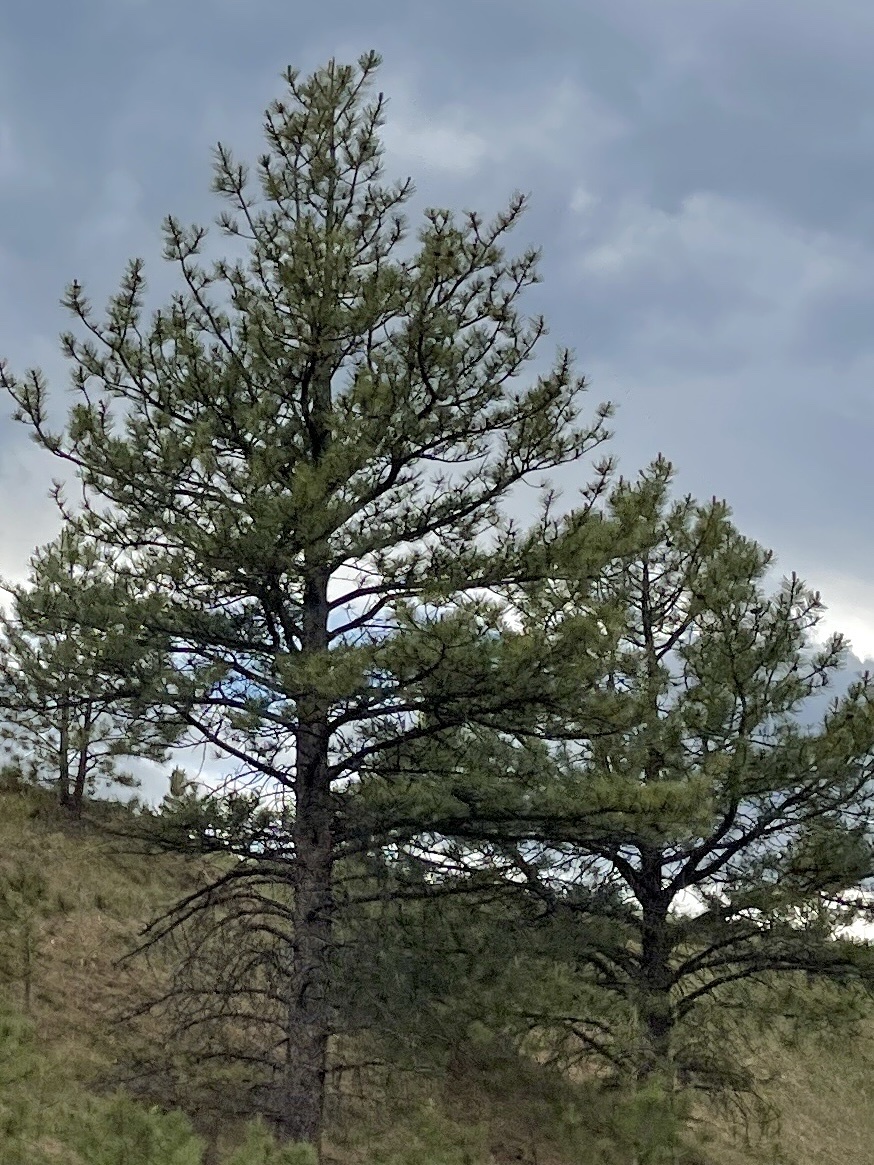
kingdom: Plantae
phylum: Tracheophyta
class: Pinopsida
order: Pinales
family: Pinaceae
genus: Pinus
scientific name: Pinus ponderosa
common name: Western yellow-pine
